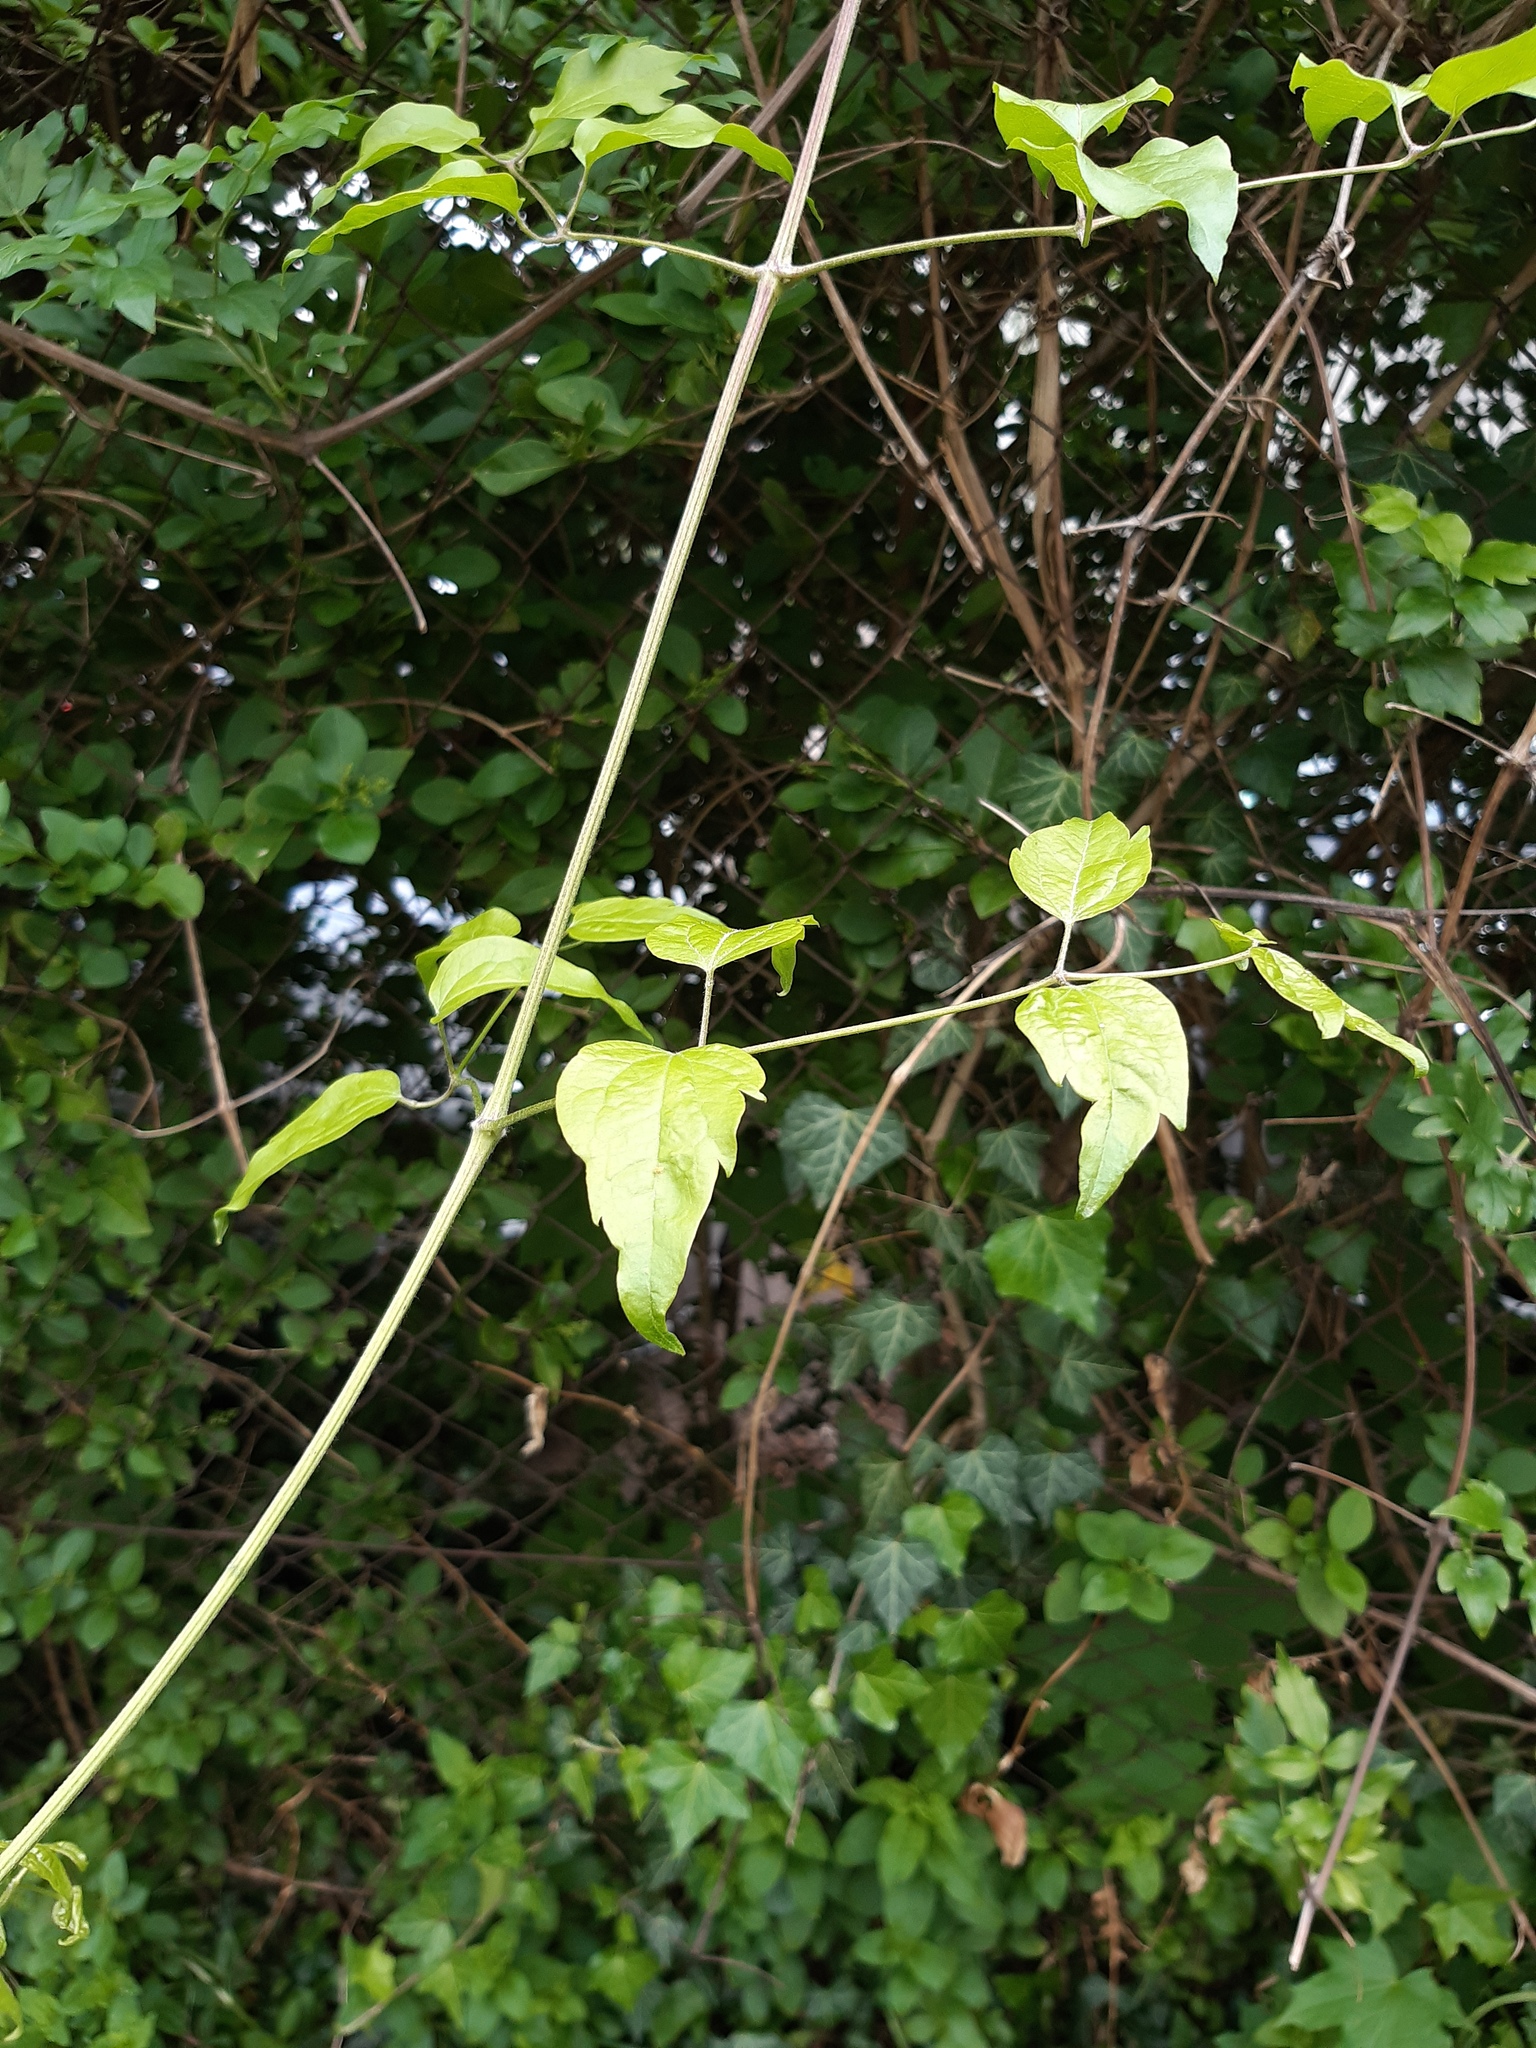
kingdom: Plantae
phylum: Tracheophyta
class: Magnoliopsida
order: Ranunculales
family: Ranunculaceae
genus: Clematis
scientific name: Clematis vitalba
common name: Evergreen clematis
